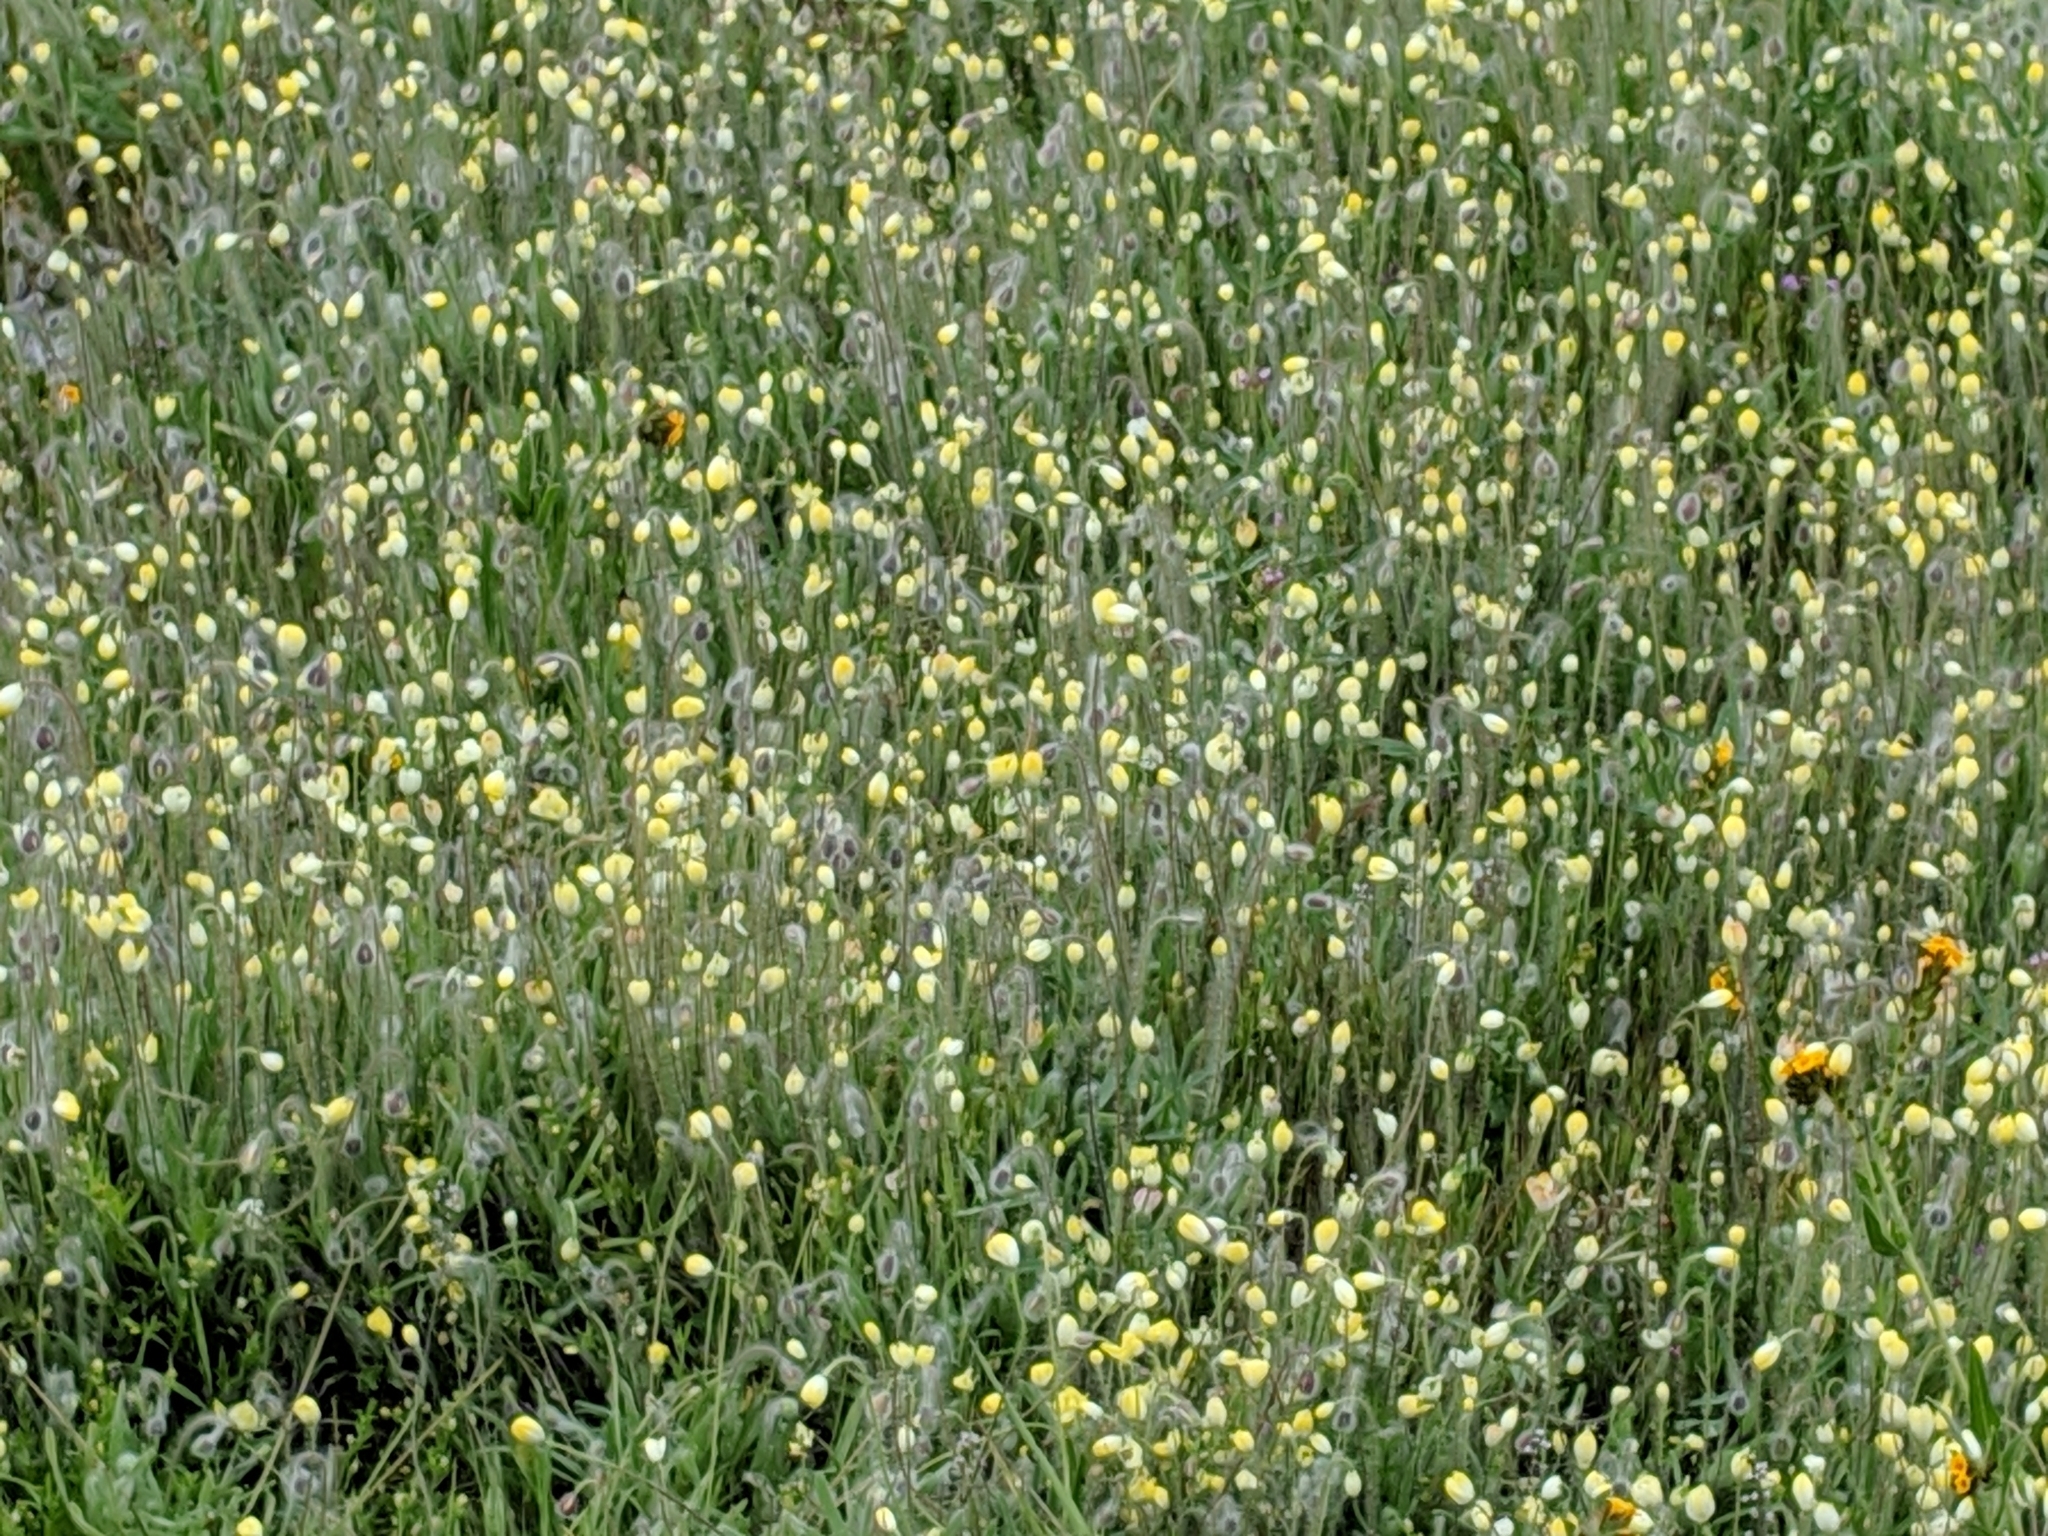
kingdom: Plantae
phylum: Tracheophyta
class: Magnoliopsida
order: Ranunculales
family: Papaveraceae
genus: Platystemon
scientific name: Platystemon californicus
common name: Cream-cups
